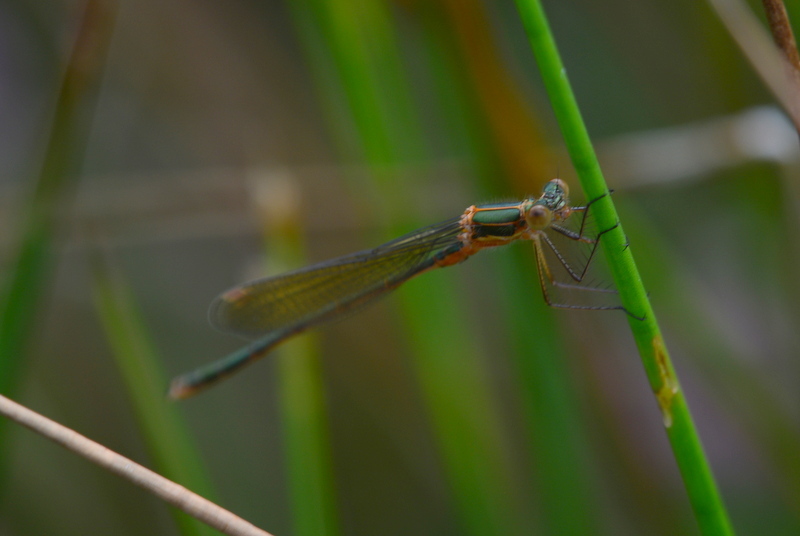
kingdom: Animalia
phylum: Arthropoda
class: Insecta
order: Odonata
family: Lestidae
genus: Lestes
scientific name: Lestes sponsa
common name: Common spreadwing
